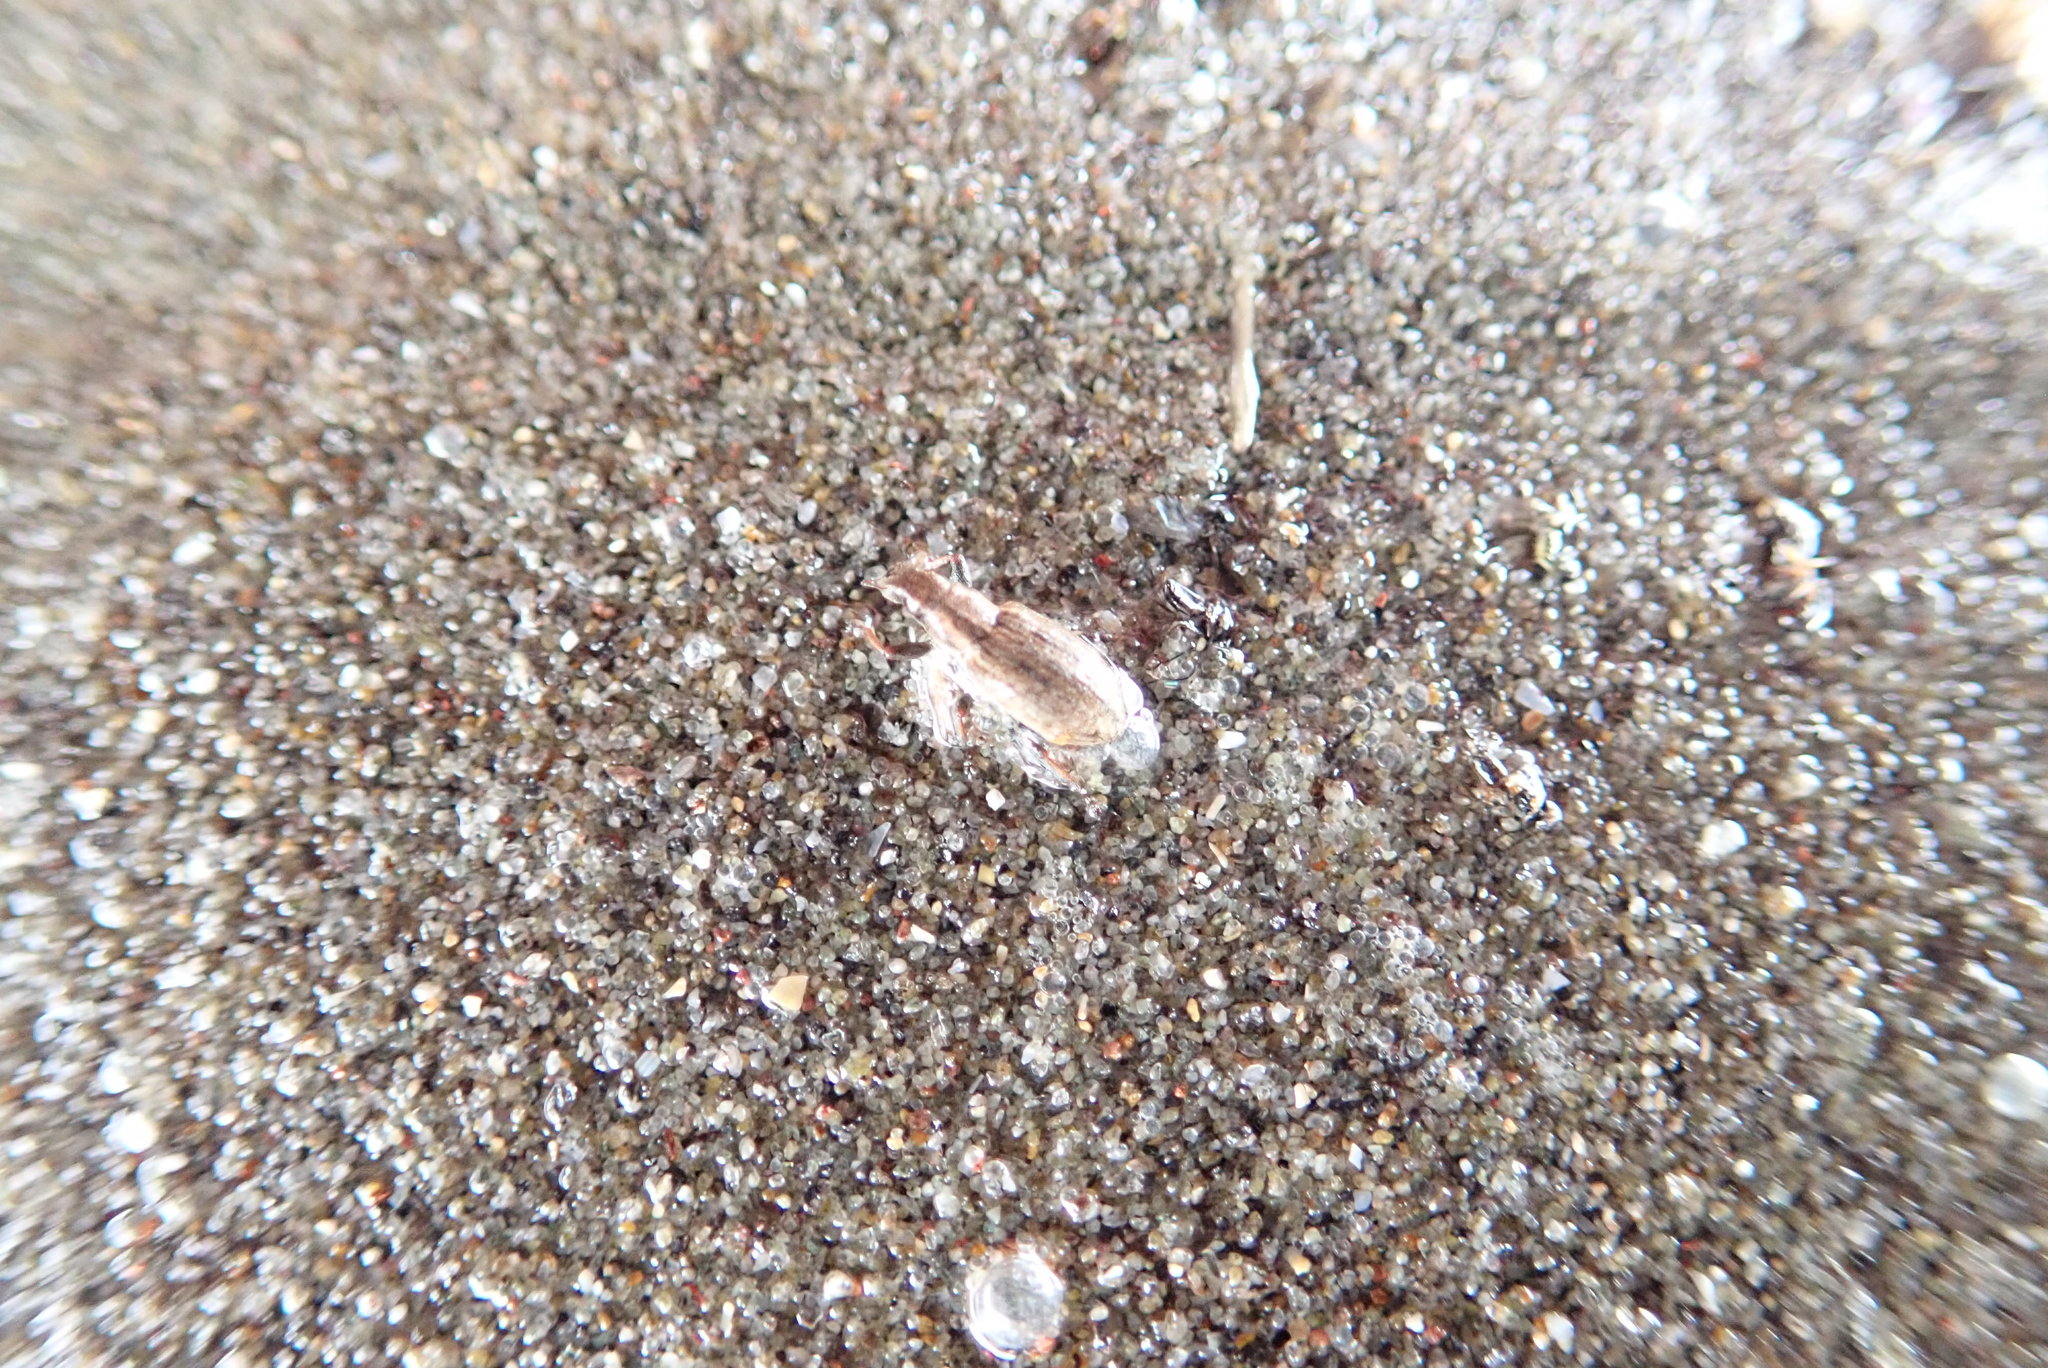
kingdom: Animalia
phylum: Arthropoda
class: Insecta
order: Coleoptera
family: Curculionidae
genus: Sitona
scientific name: Sitona obsoletus
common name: Weevil
